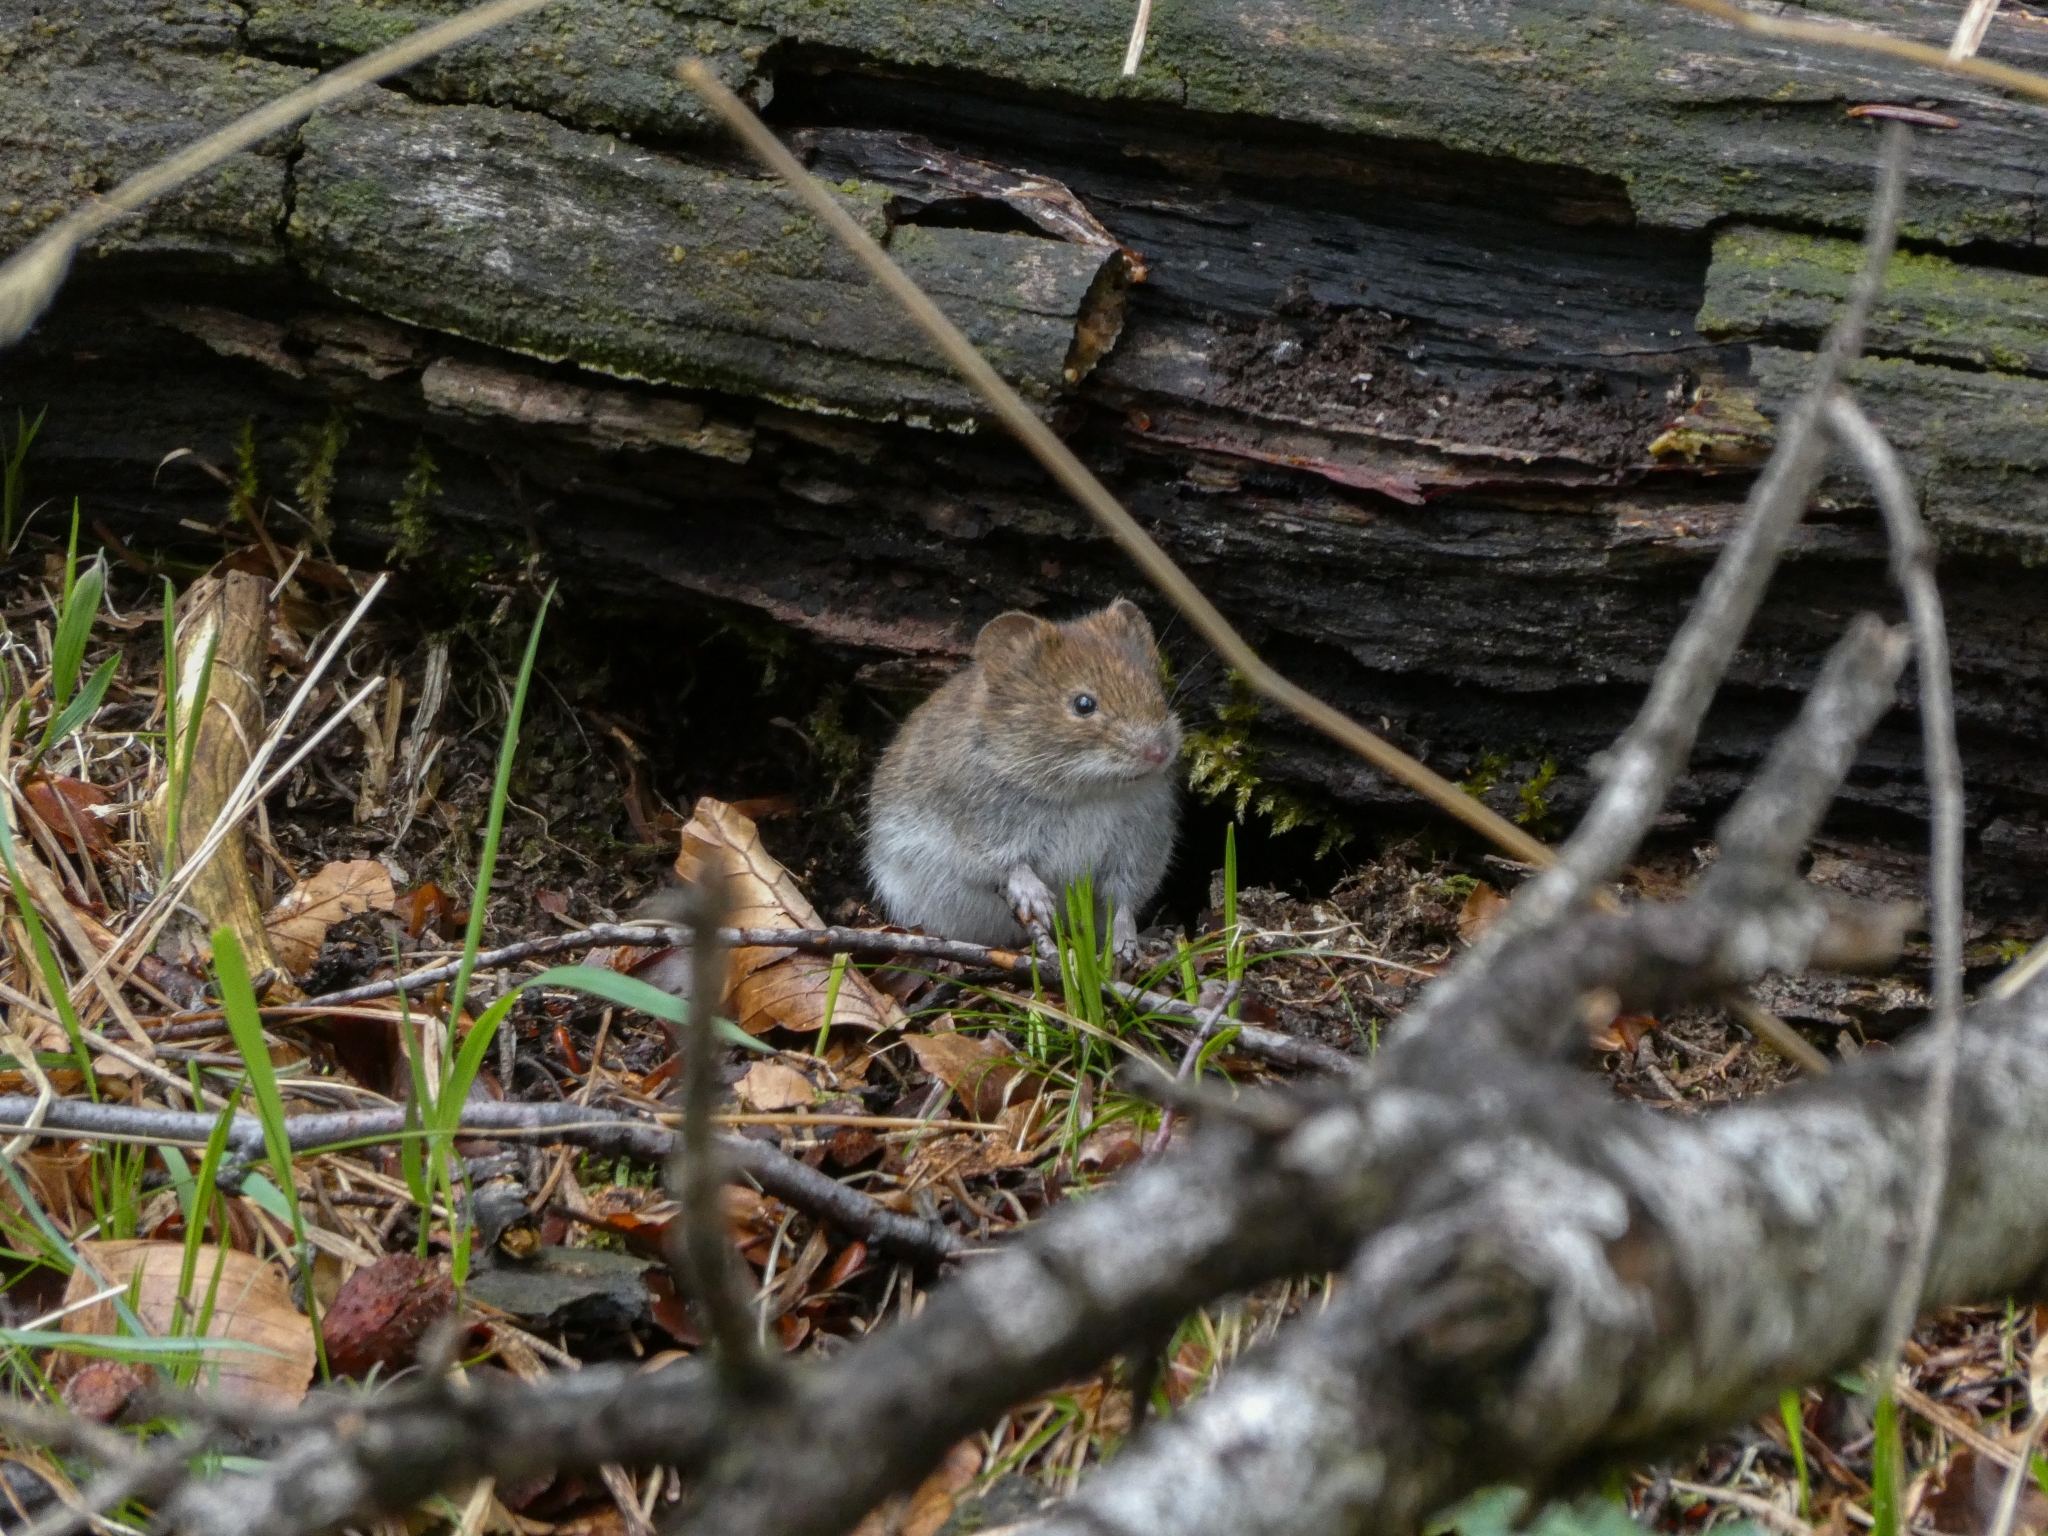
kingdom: Animalia
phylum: Chordata
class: Mammalia
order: Rodentia
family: Cricetidae
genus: Myodes
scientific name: Myodes glareolus
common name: Bank vole
